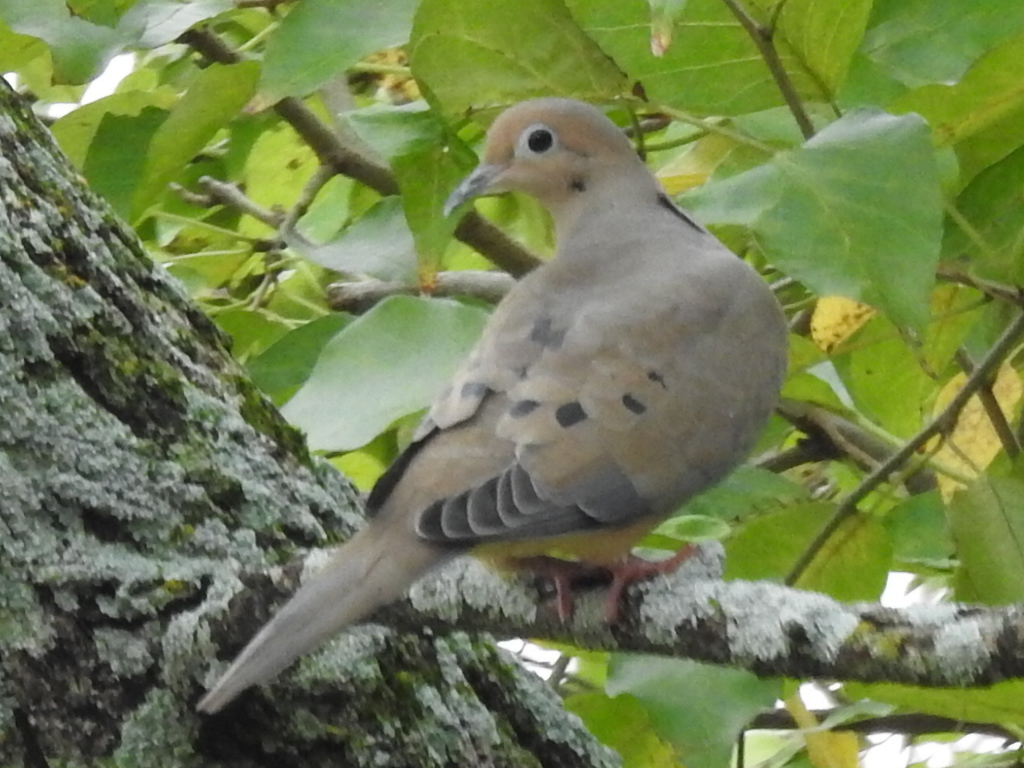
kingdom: Animalia
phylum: Chordata
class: Aves
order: Columbiformes
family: Columbidae
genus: Zenaida
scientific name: Zenaida macroura
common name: Mourning dove
